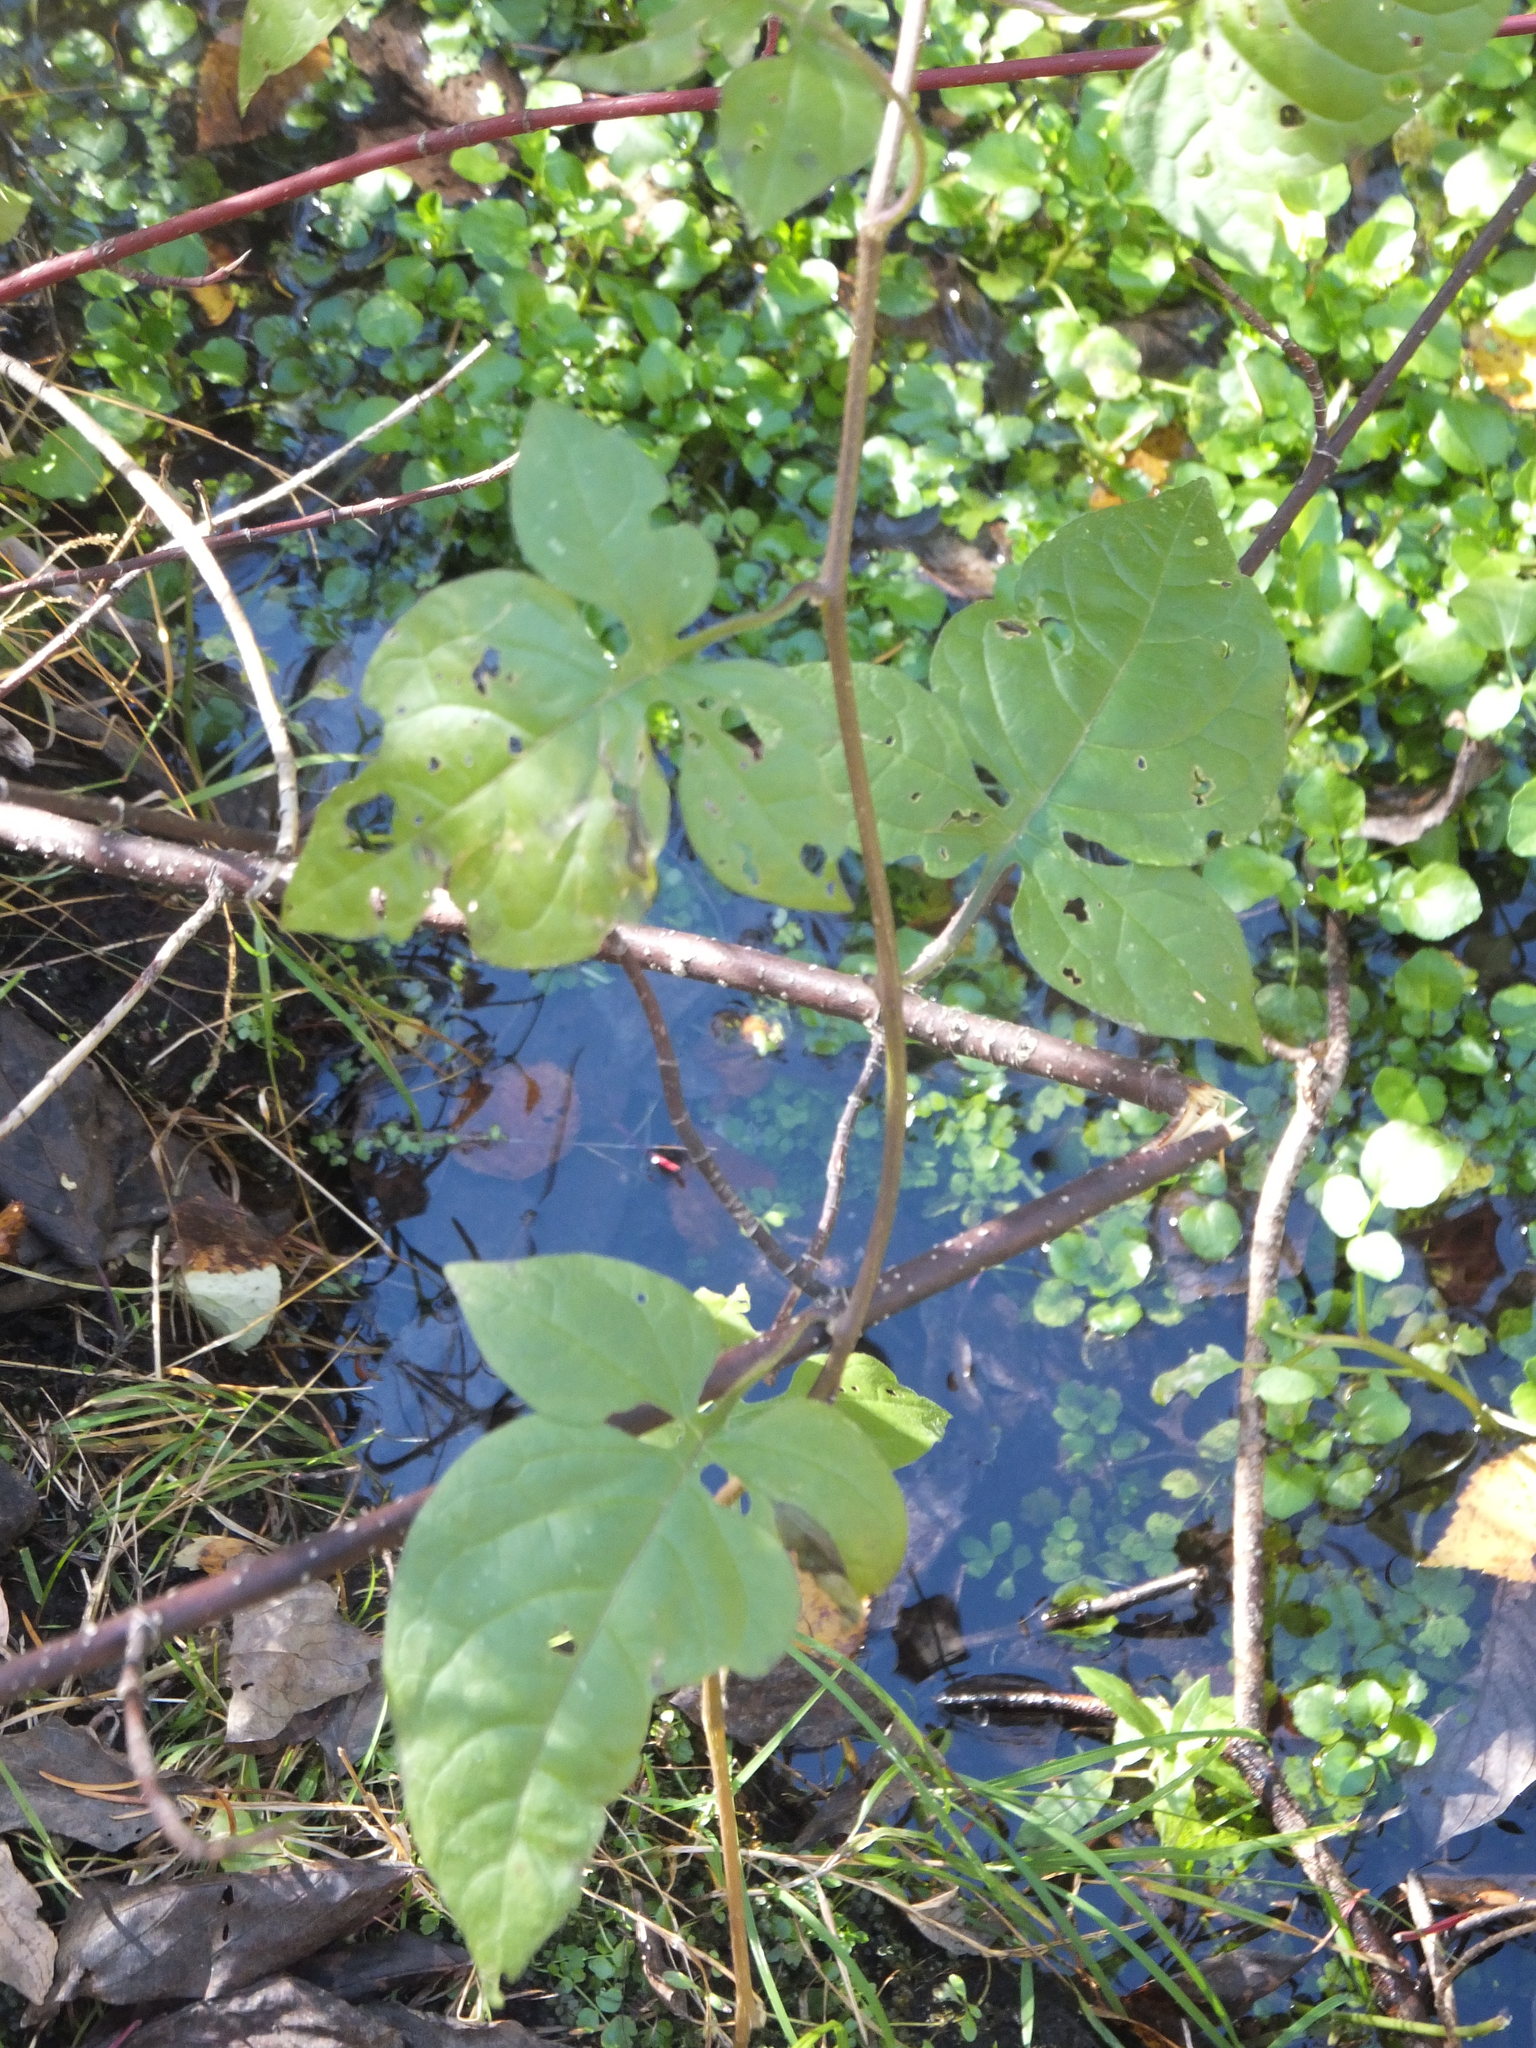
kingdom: Plantae
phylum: Tracheophyta
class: Magnoliopsida
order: Solanales
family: Solanaceae
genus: Solanum
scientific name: Solanum dulcamara
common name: Climbing nightshade
